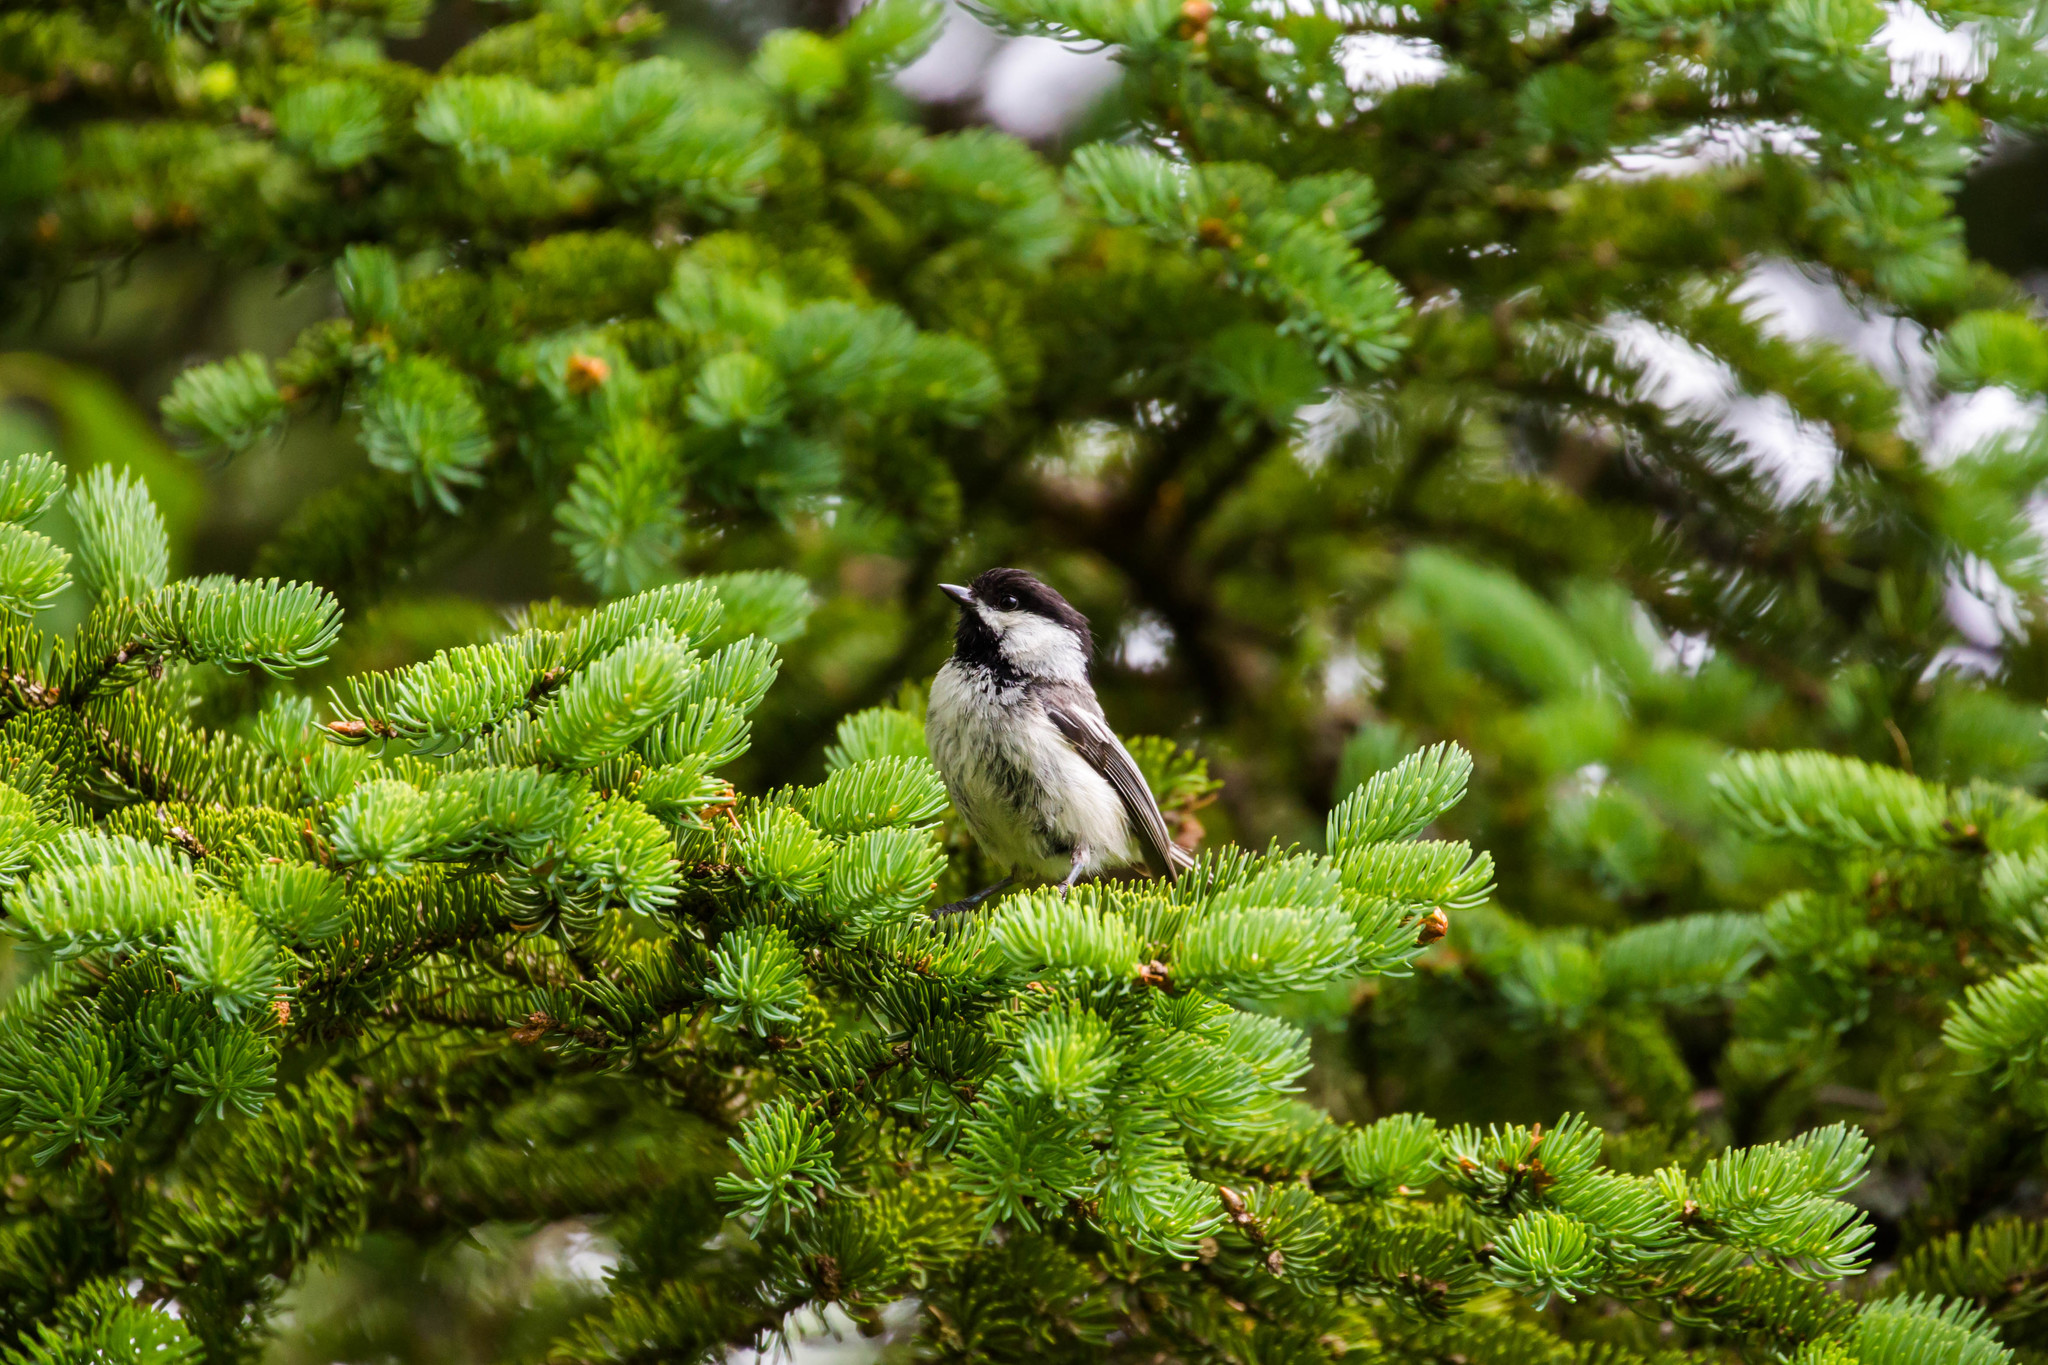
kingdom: Animalia
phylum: Chordata
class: Aves
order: Passeriformes
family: Paridae
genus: Poecile
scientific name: Poecile atricapillus
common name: Black-capped chickadee
